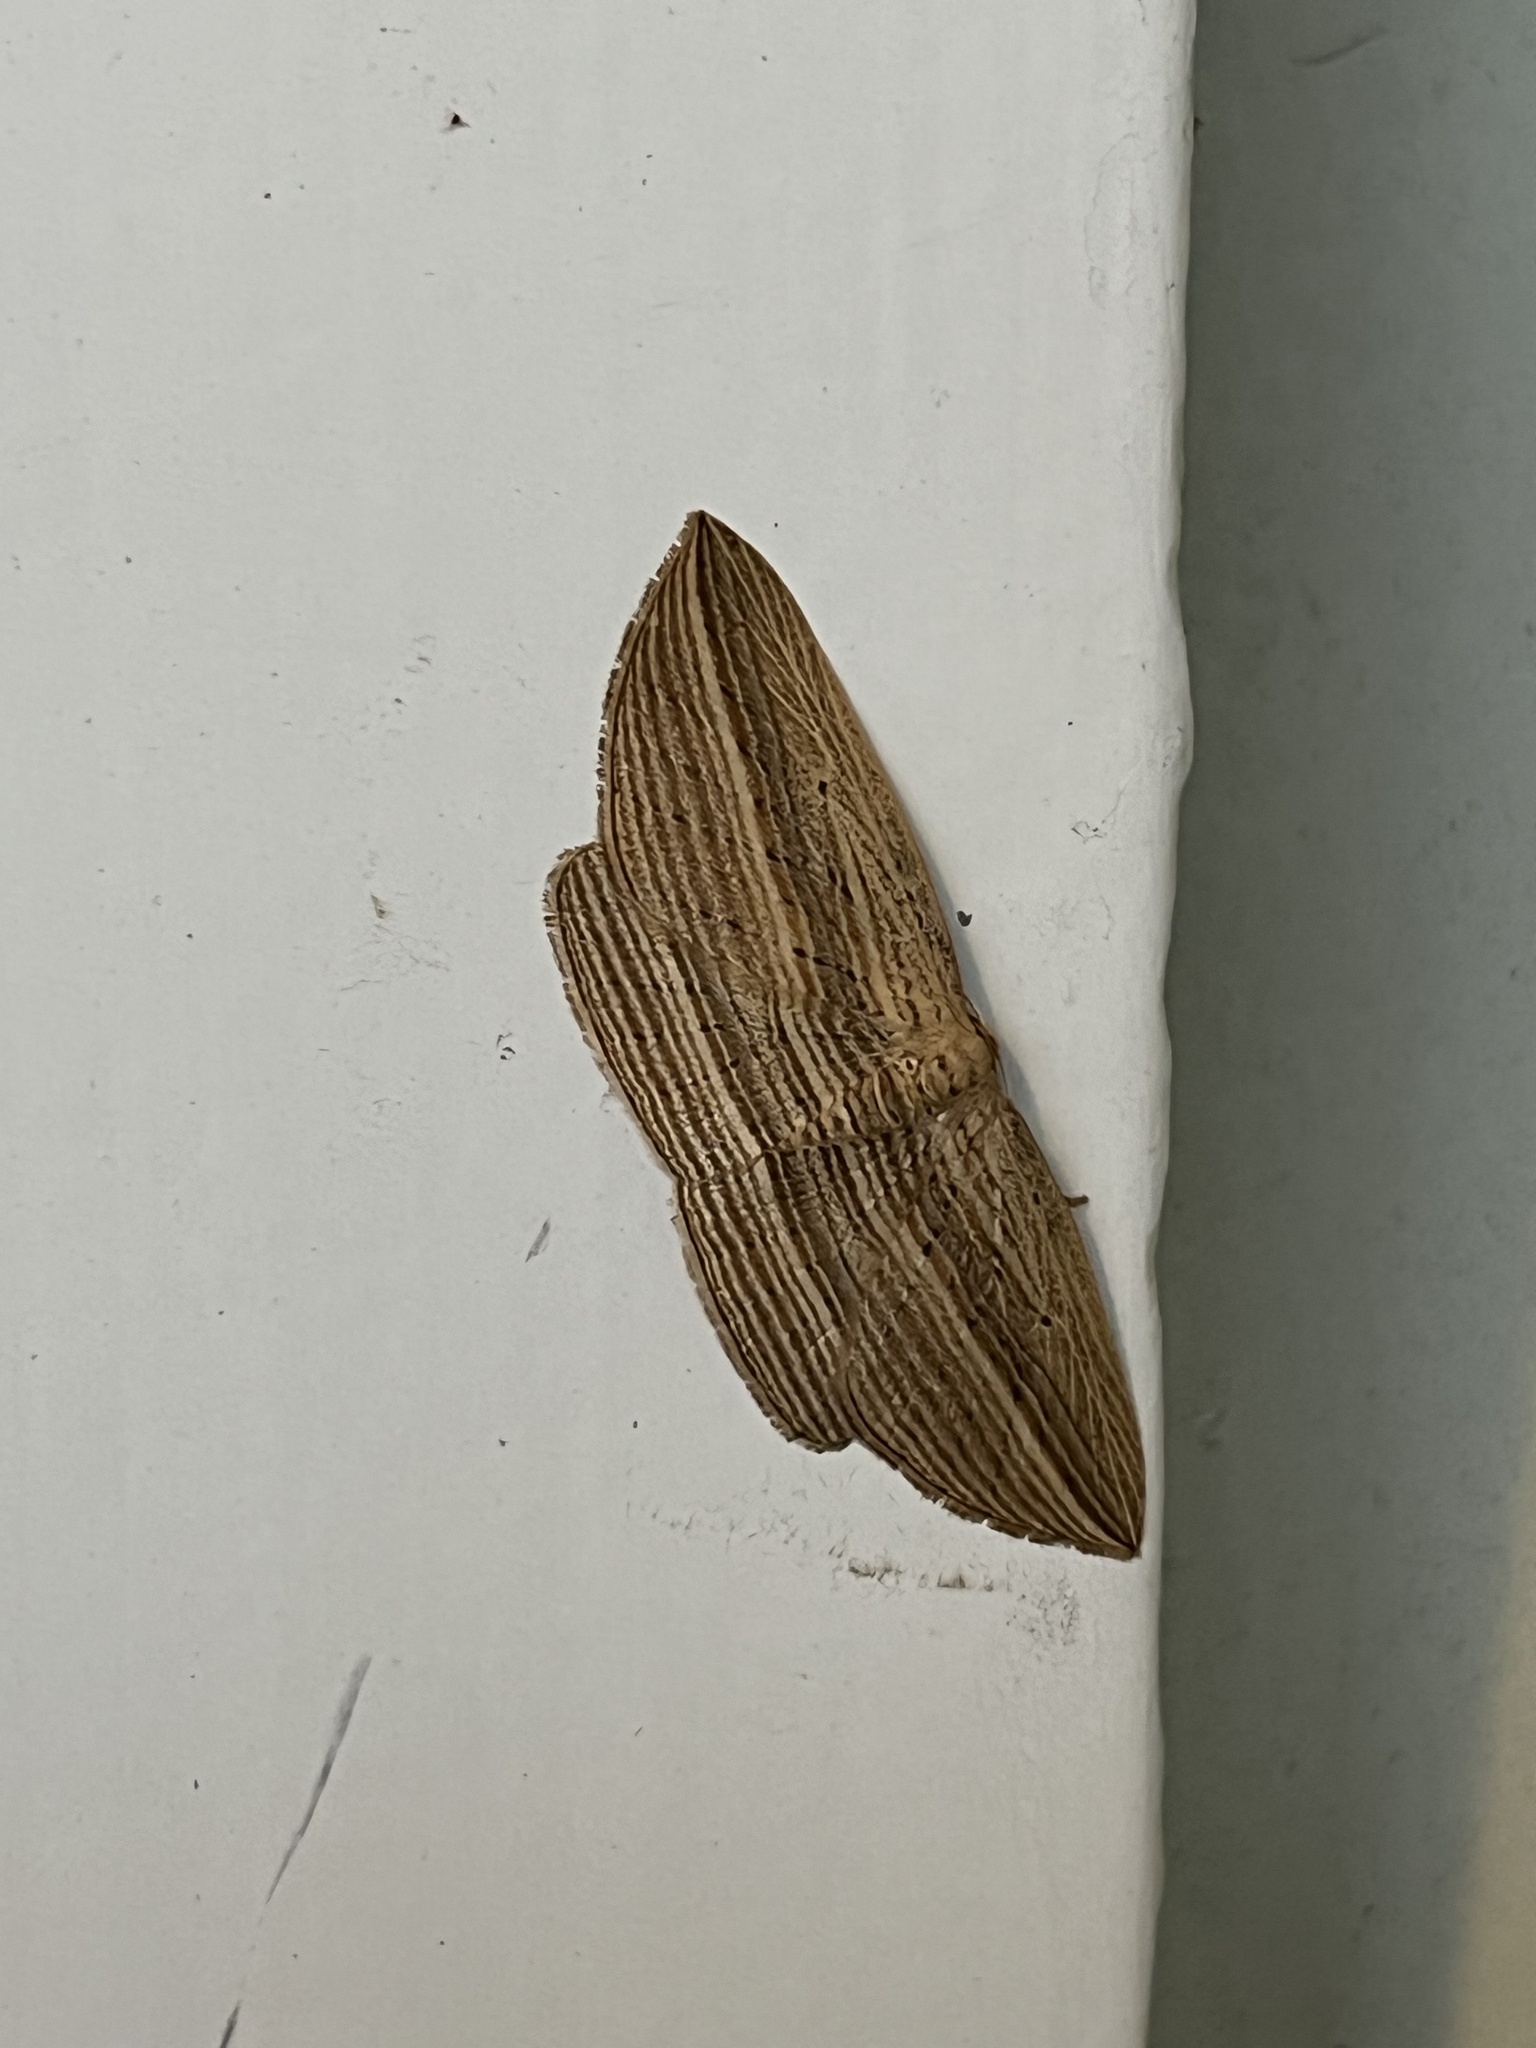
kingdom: Animalia
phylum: Arthropoda
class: Insecta
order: Lepidoptera
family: Geometridae
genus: Epiphryne
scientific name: Epiphryne verriculata
